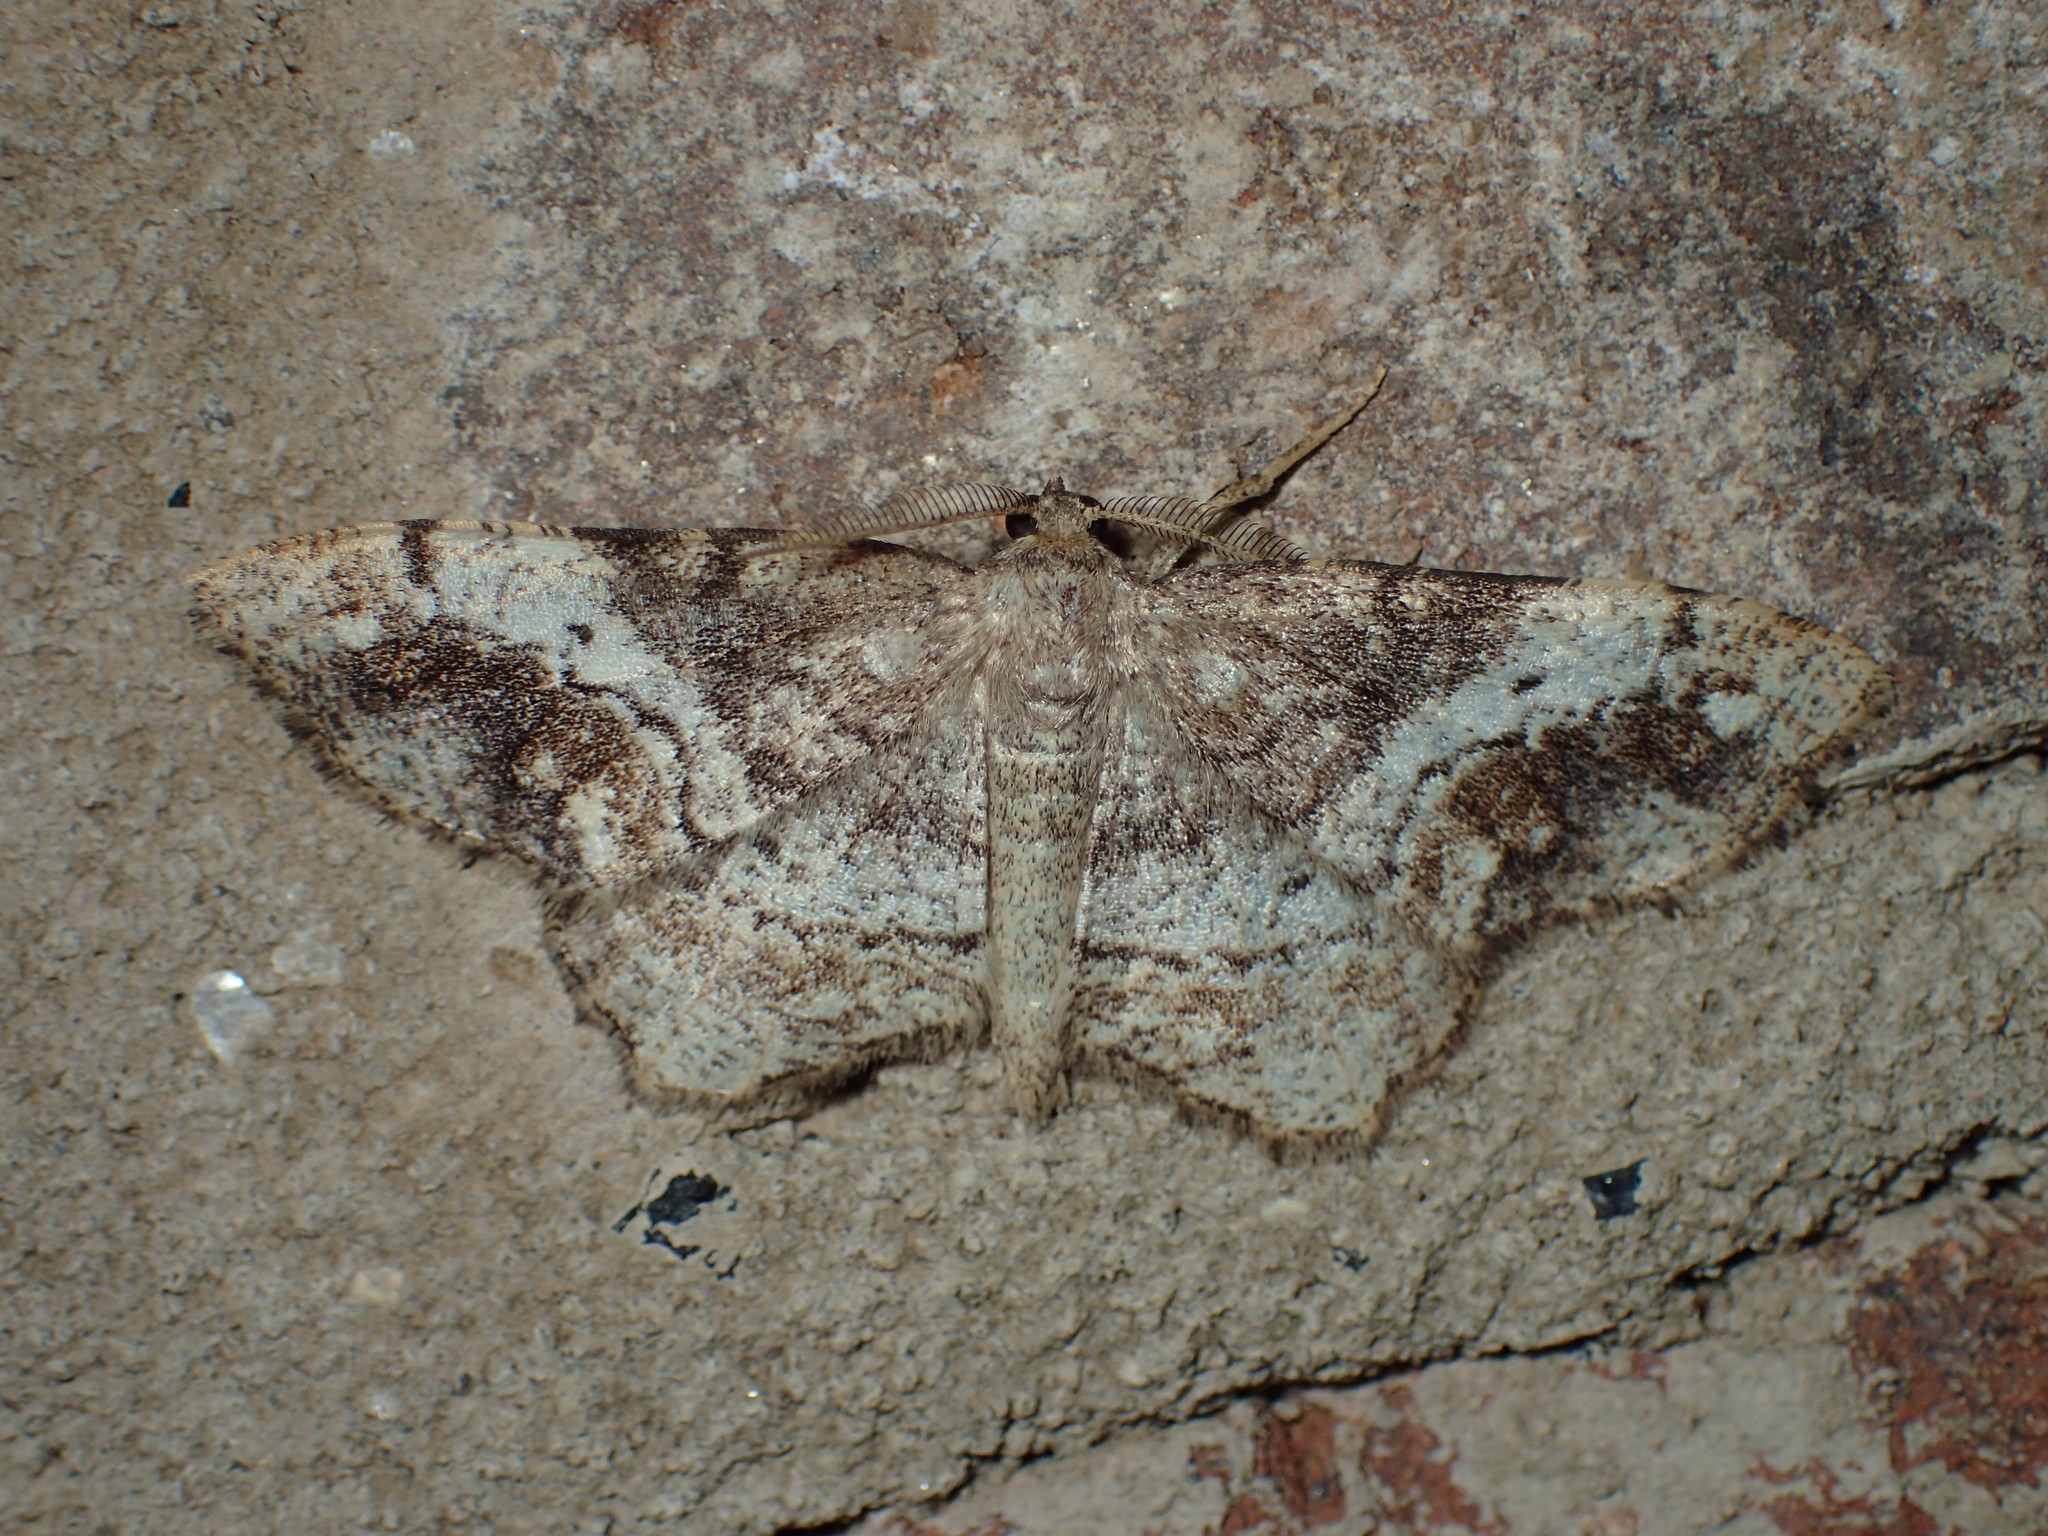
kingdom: Animalia
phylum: Arthropoda
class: Insecta
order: Lepidoptera
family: Geometridae
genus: Hypagyrtis
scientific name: Hypagyrtis unipunctata
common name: One-spotted variant
